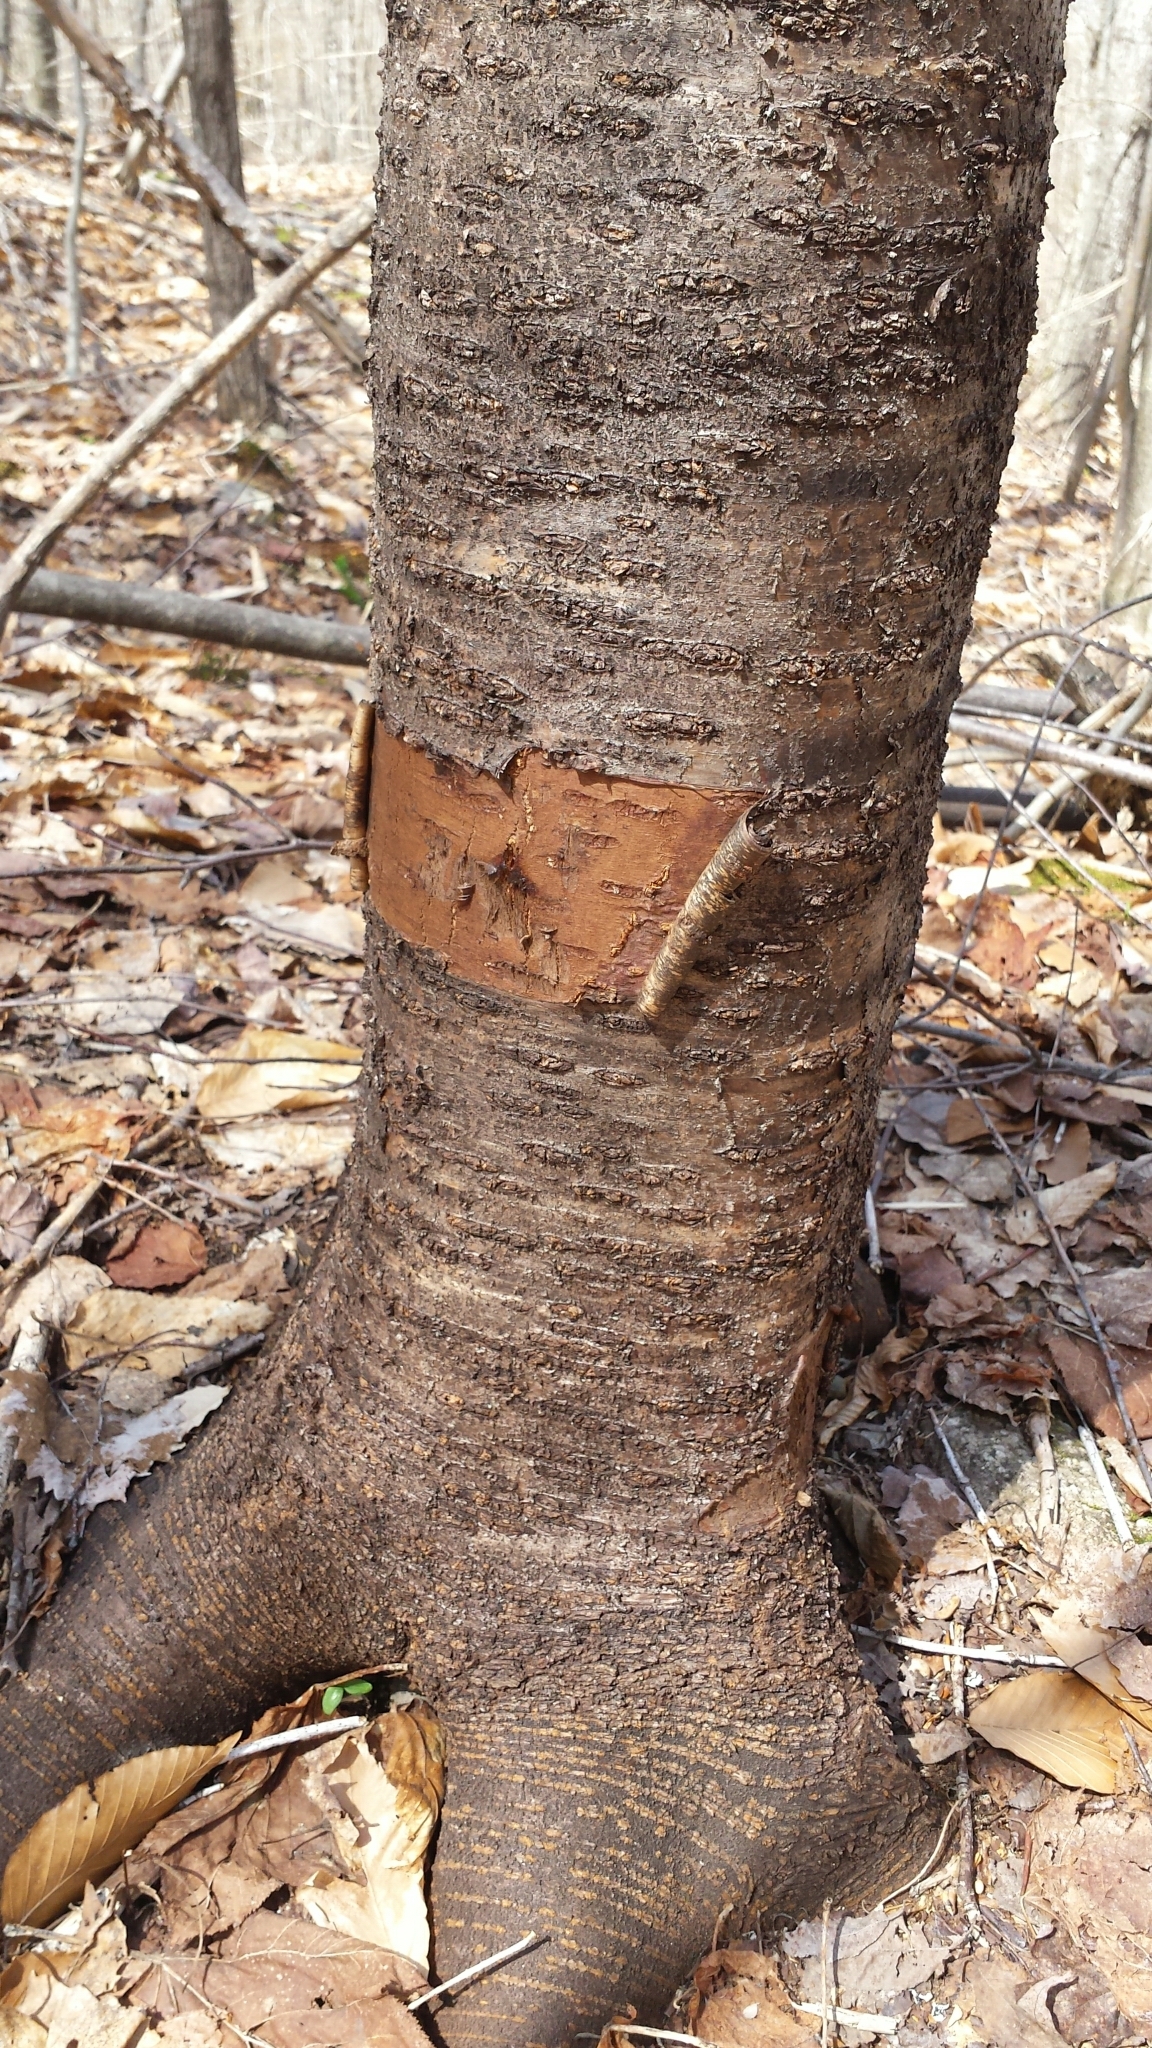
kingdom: Plantae
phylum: Tracheophyta
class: Magnoliopsida
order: Rosales
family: Rosaceae
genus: Prunus
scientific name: Prunus pensylvanica
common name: Pin cherry
